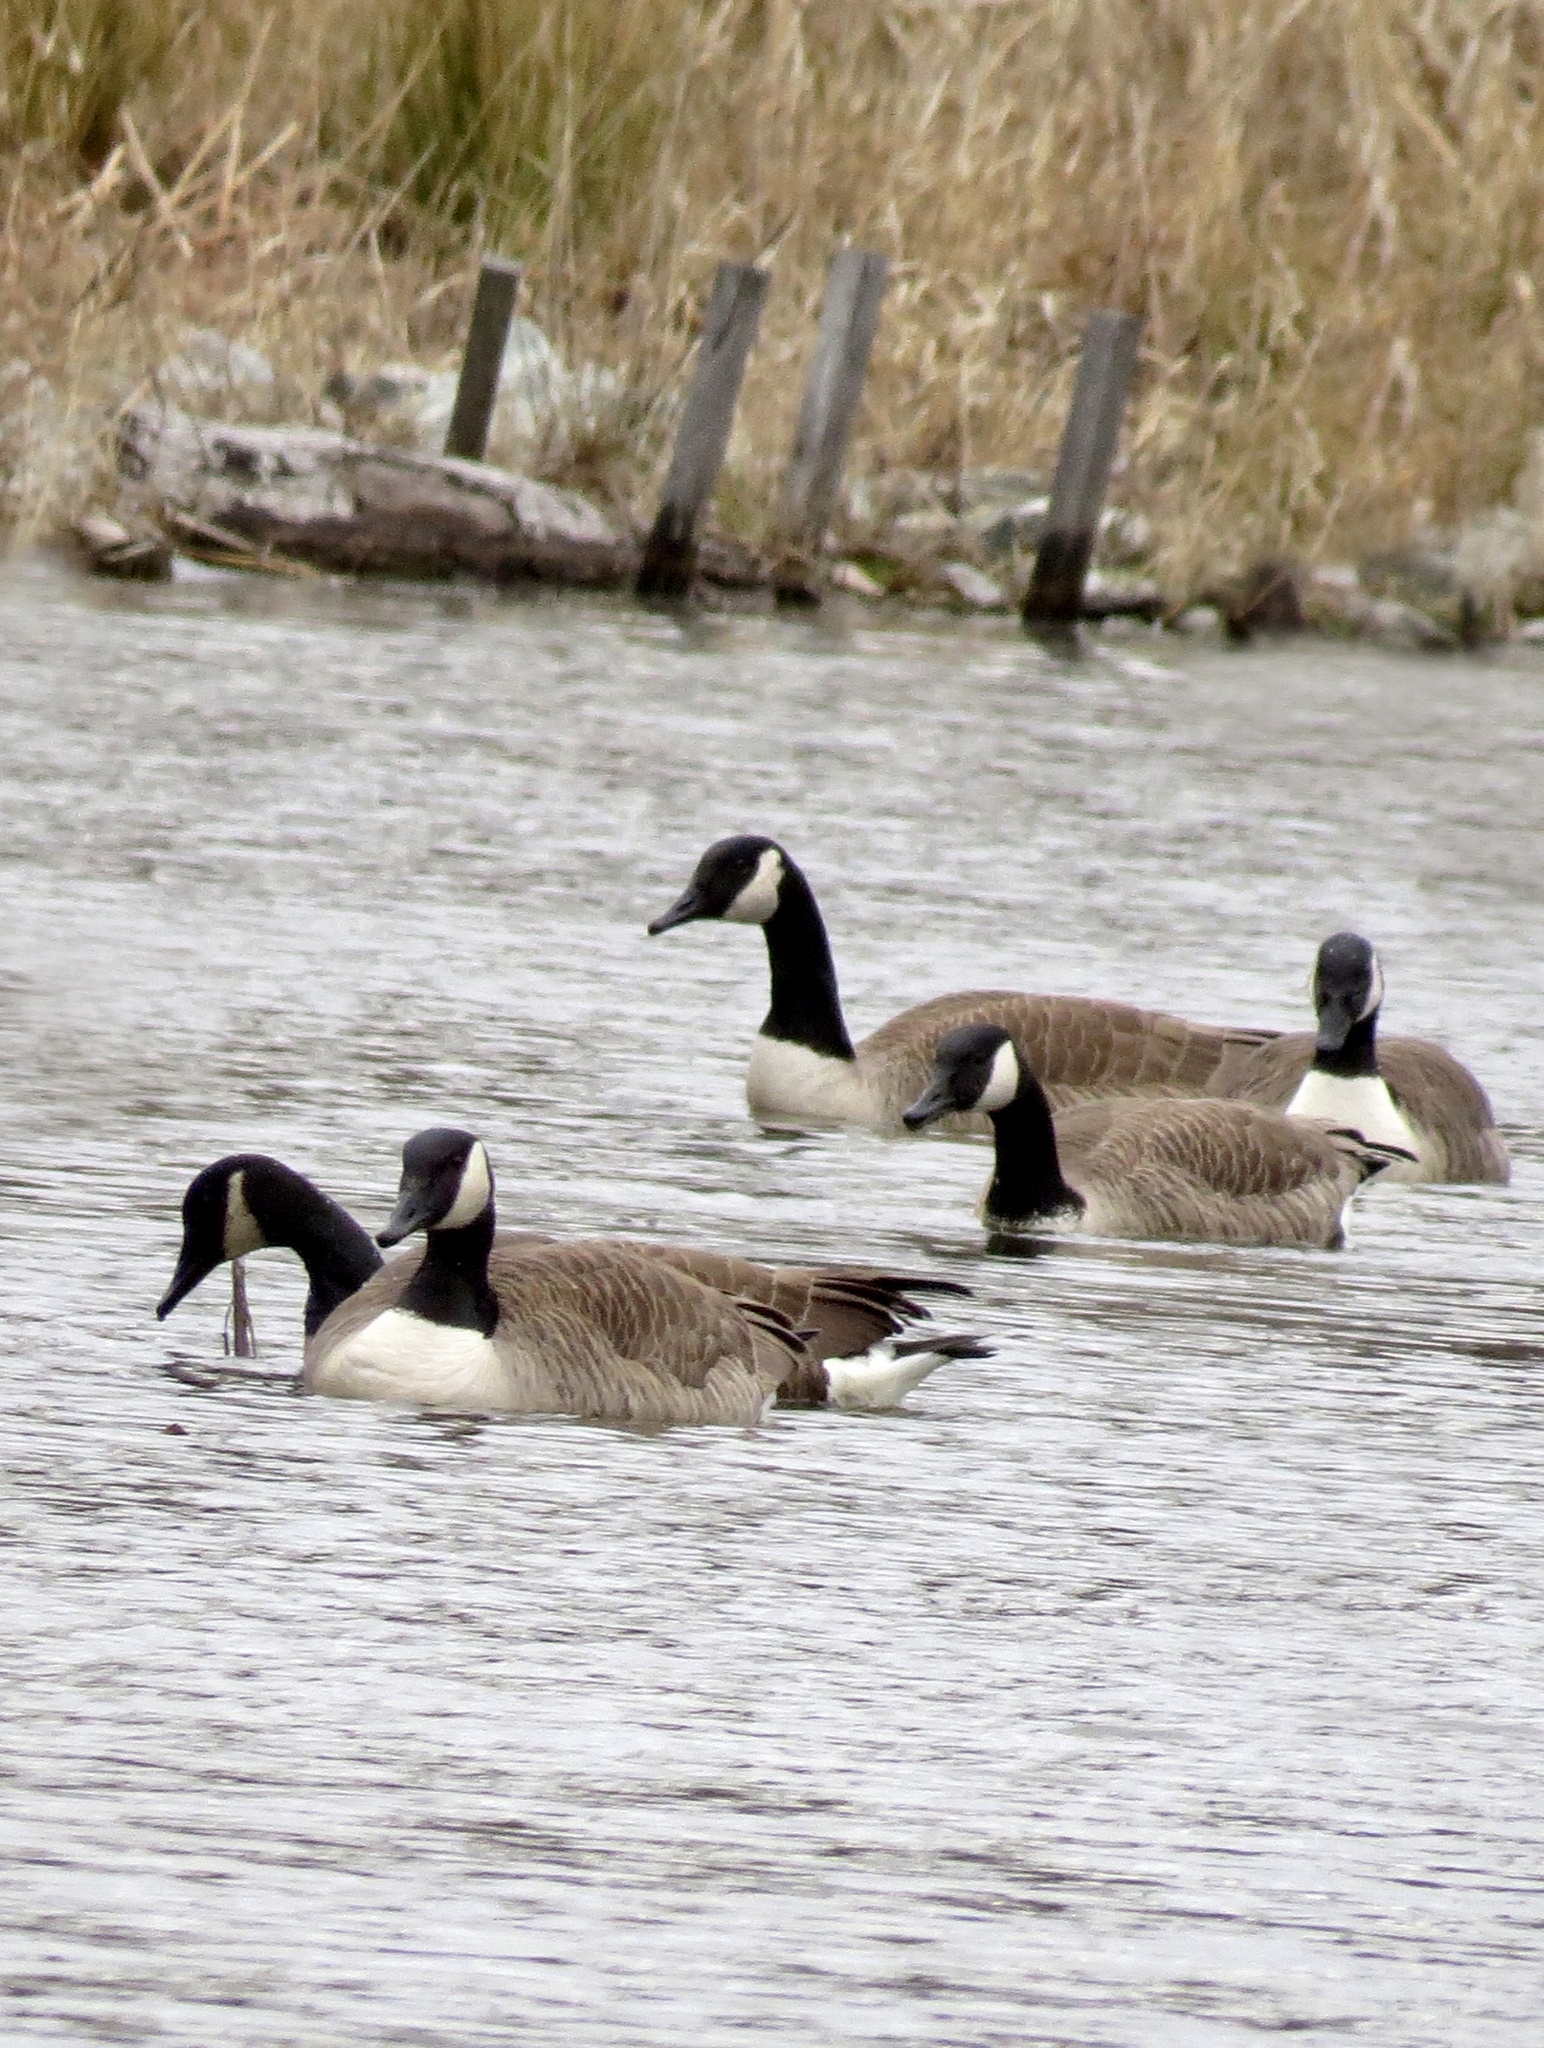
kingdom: Animalia
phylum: Chordata
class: Aves
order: Anseriformes
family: Anatidae
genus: Branta
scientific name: Branta canadensis
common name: Canada goose
